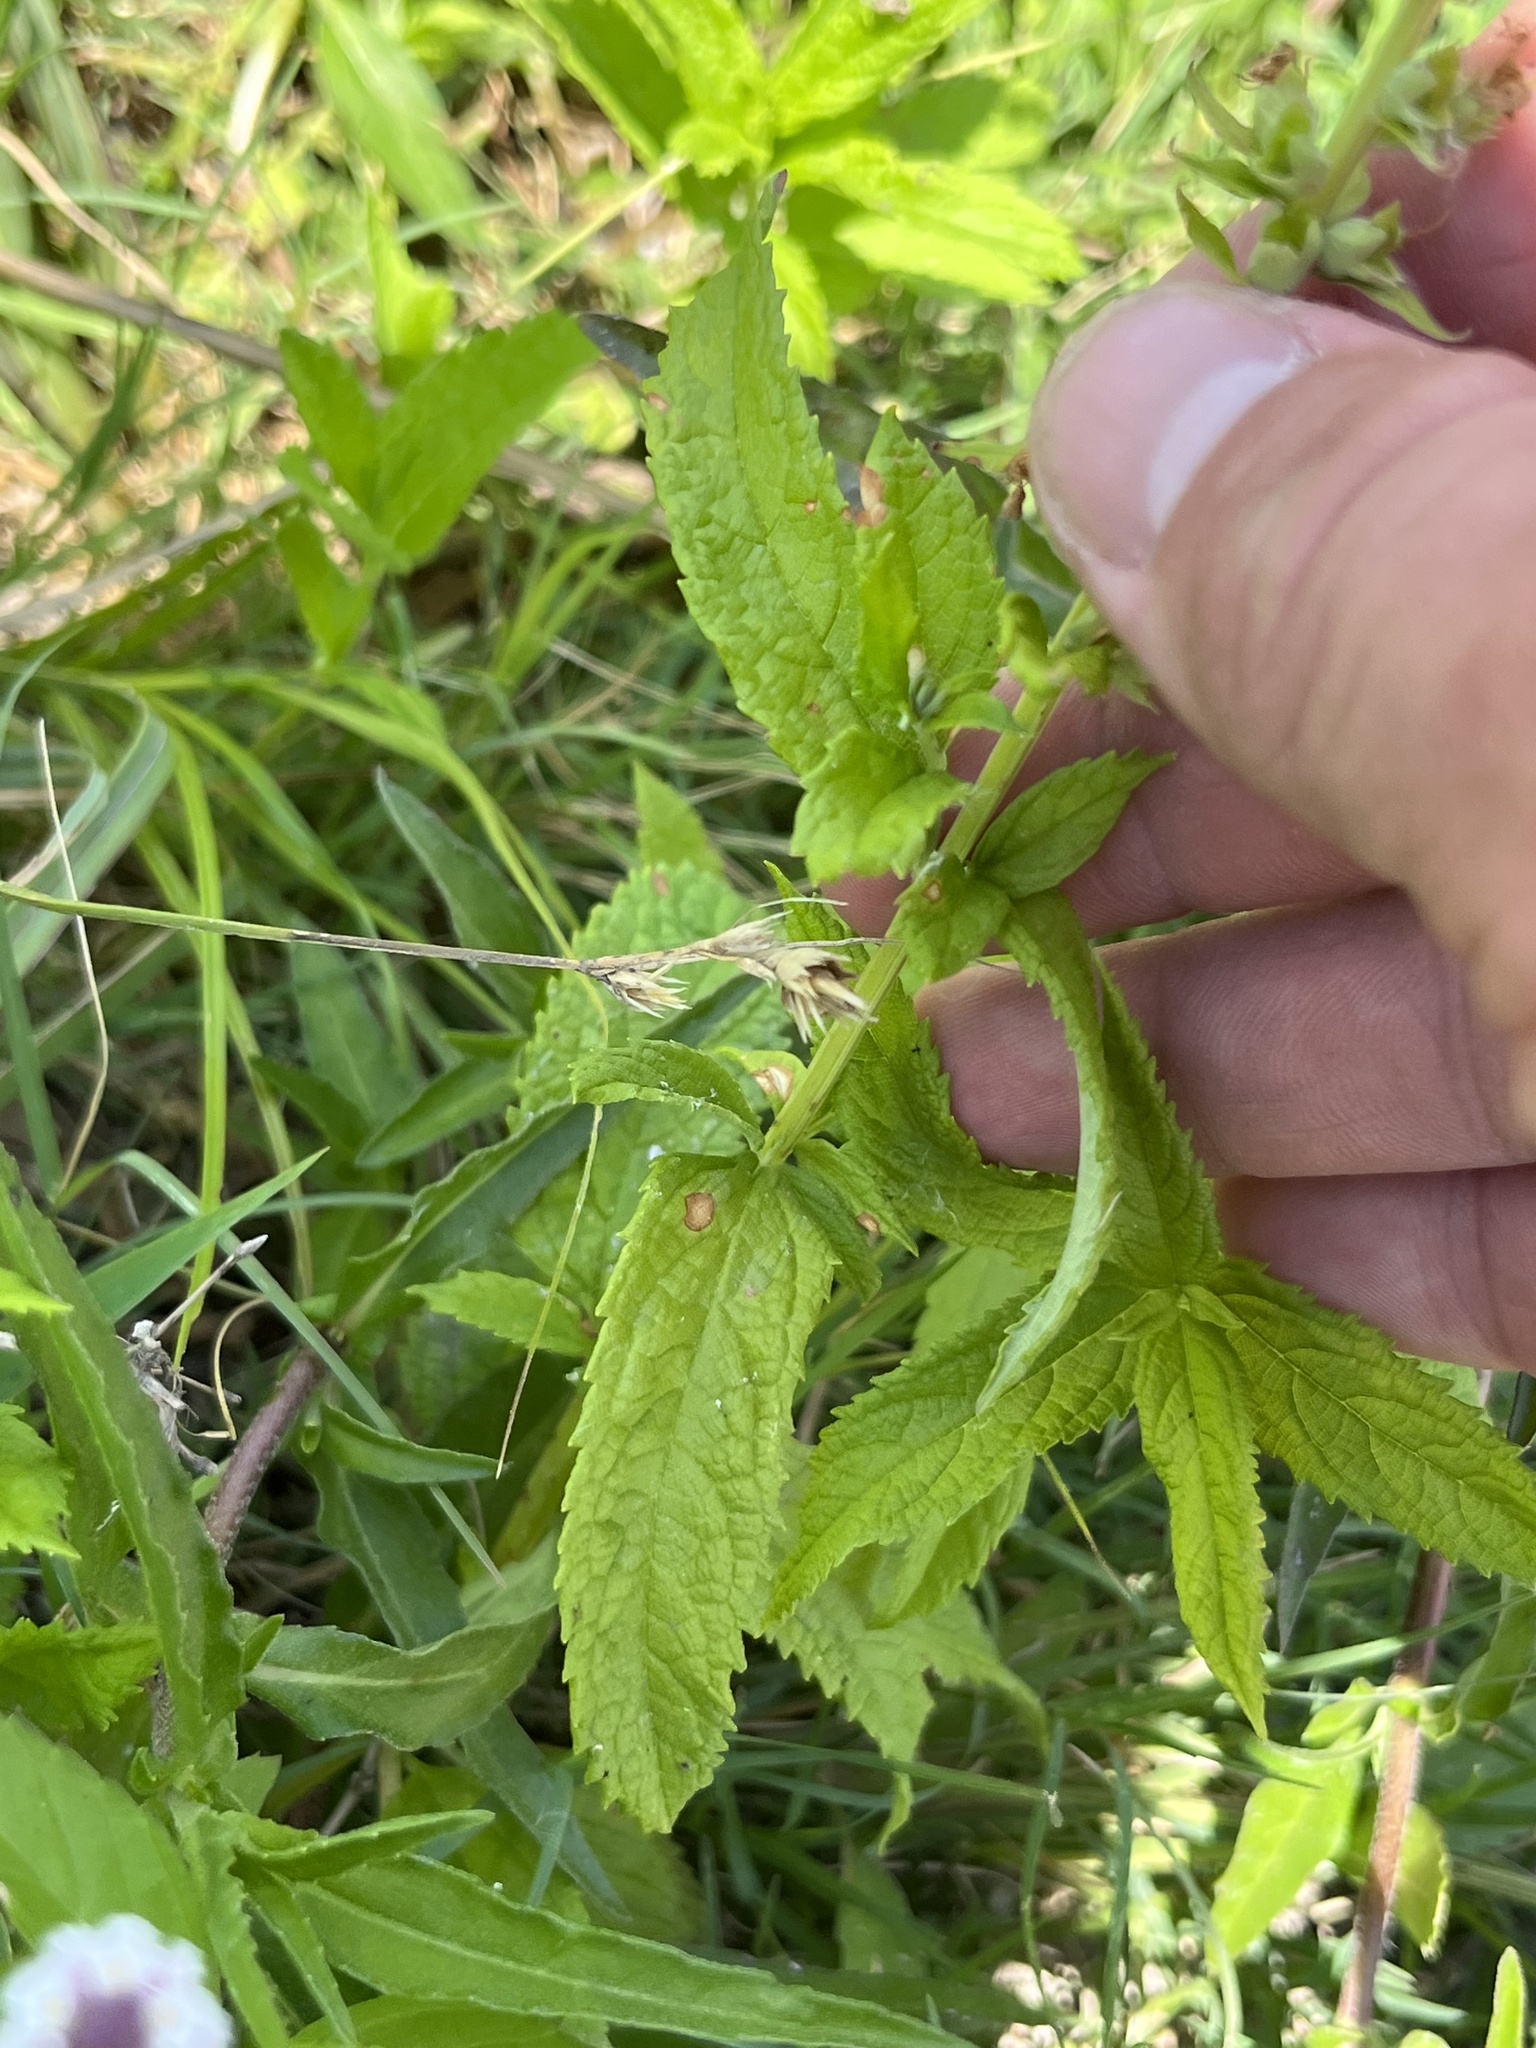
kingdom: Plantae
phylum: Tracheophyta
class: Magnoliopsida
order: Lamiales
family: Lamiaceae
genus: Teucrium
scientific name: Teucrium canadense
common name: American germander
